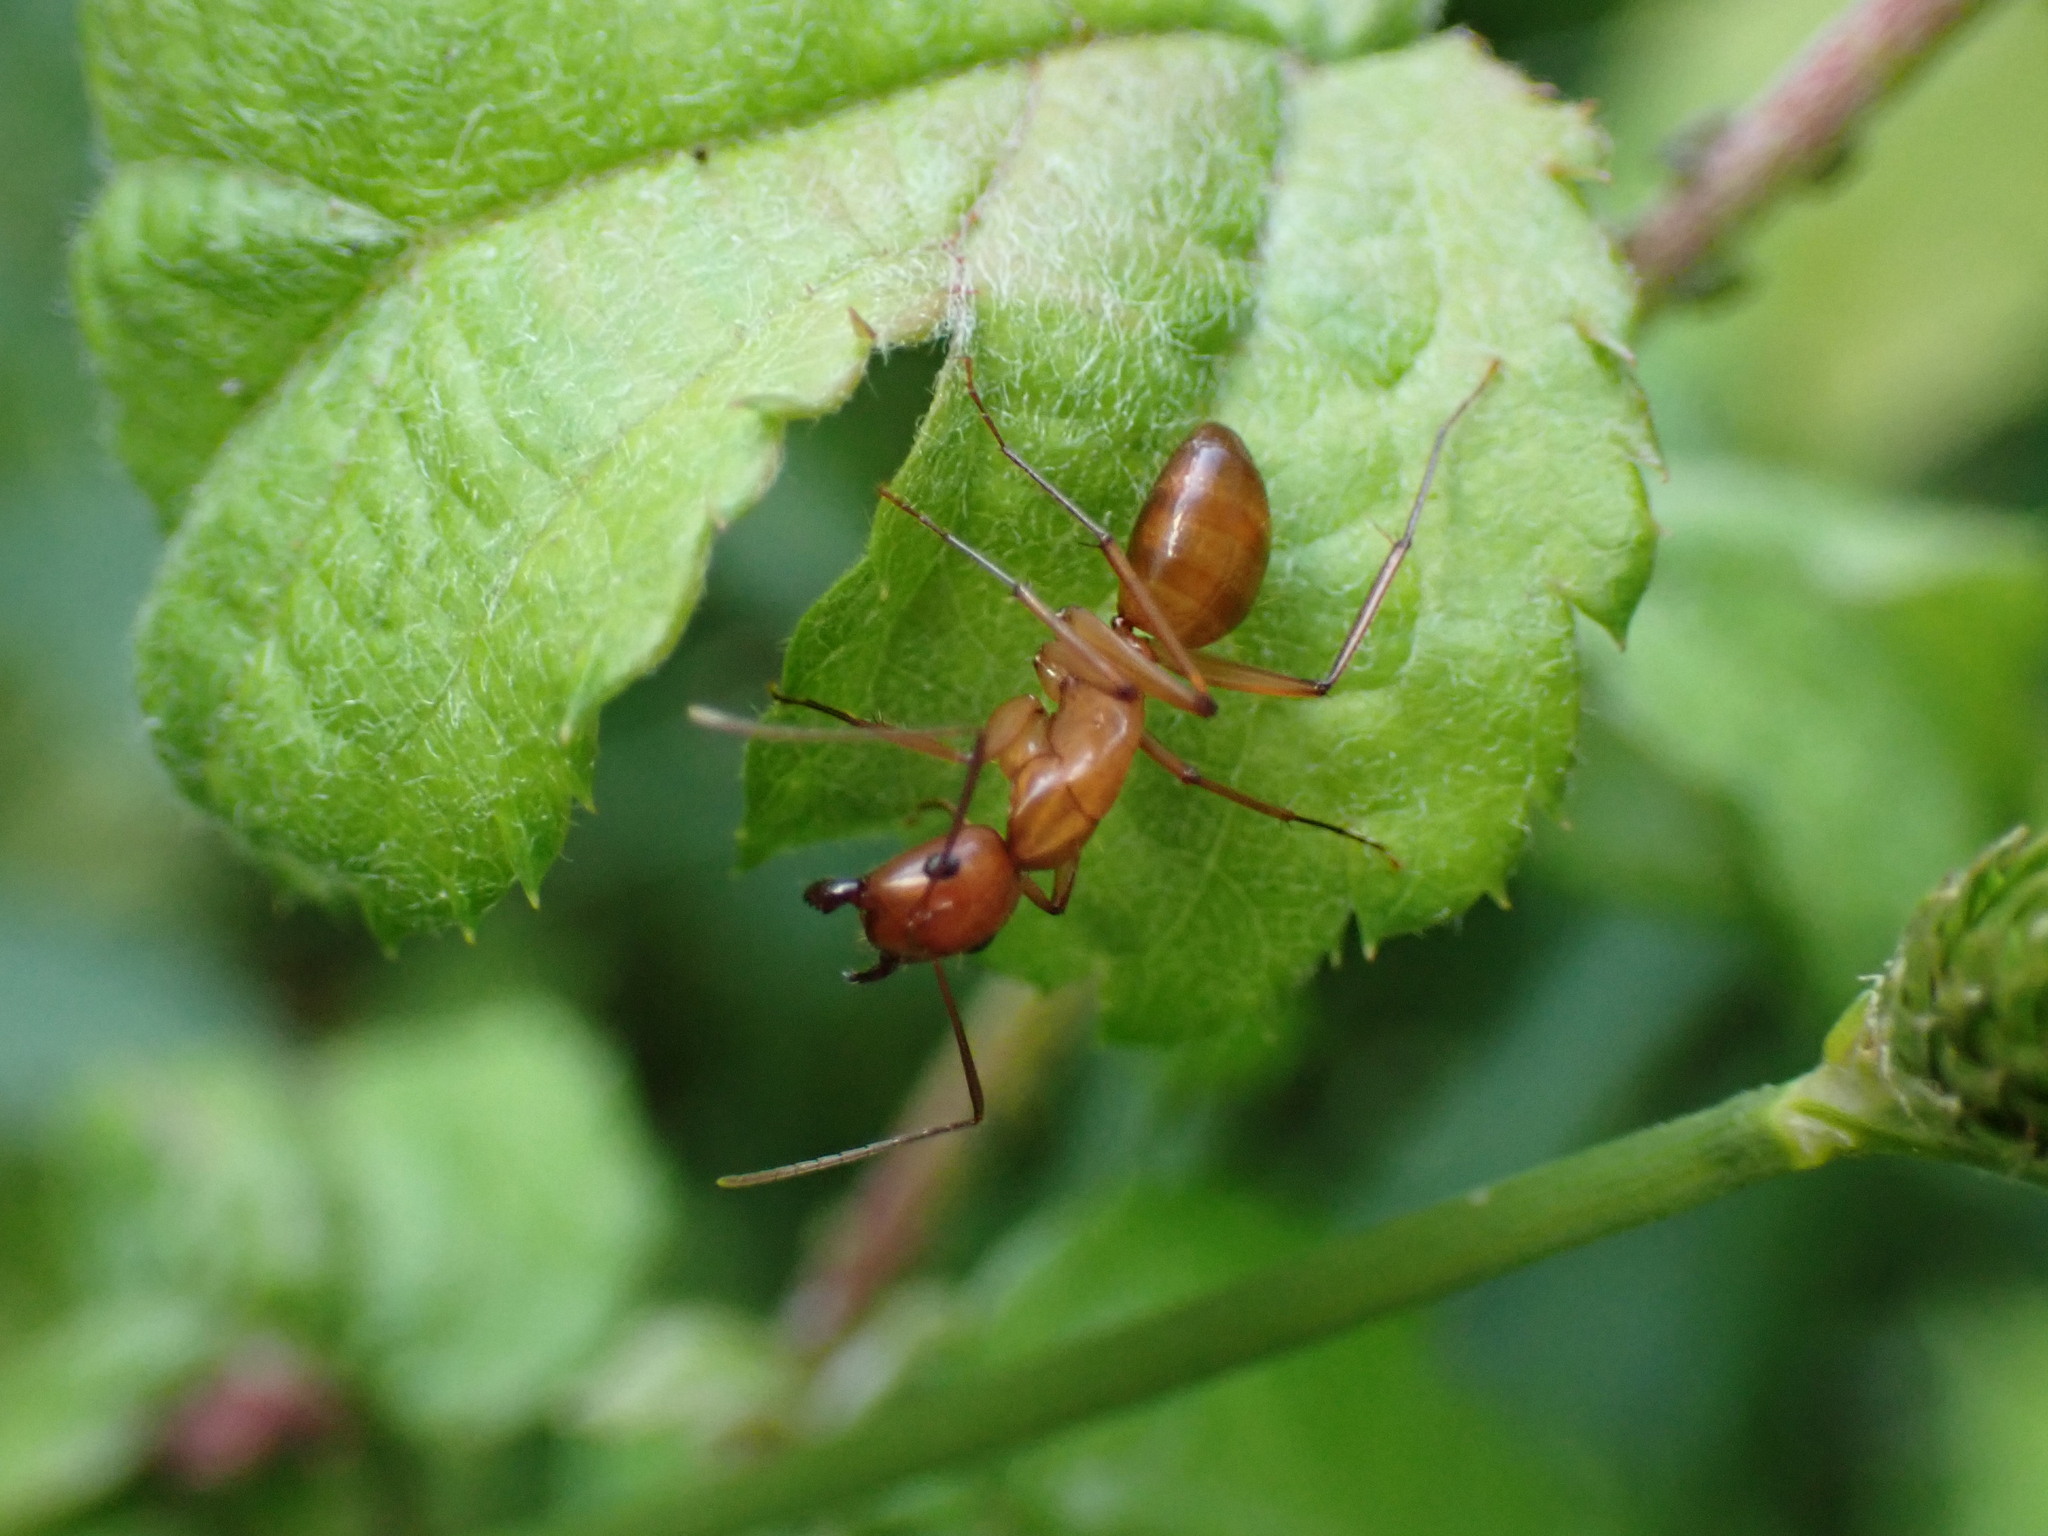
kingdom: Animalia
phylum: Arthropoda
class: Insecta
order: Hymenoptera
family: Formicidae
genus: Camponotus
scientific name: Camponotus castaneus
